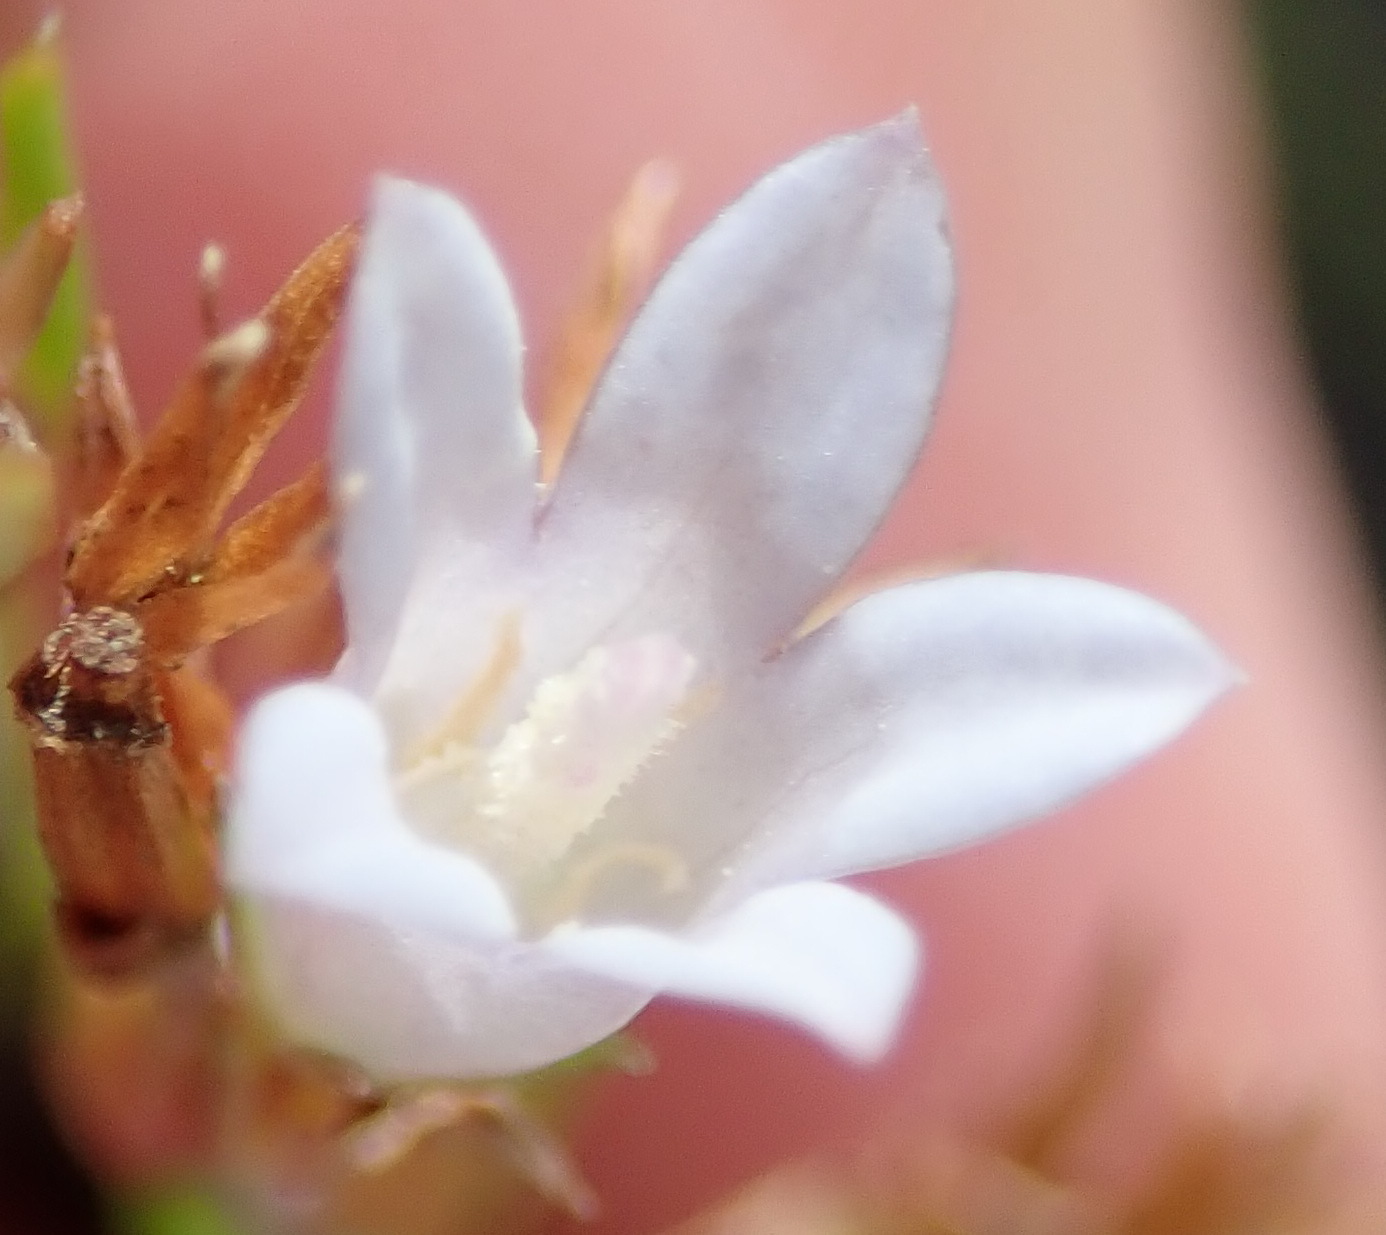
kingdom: Plantae
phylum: Tracheophyta
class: Magnoliopsida
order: Asterales
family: Campanulaceae
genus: Prismatocarpus
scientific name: Prismatocarpus schlechteri
